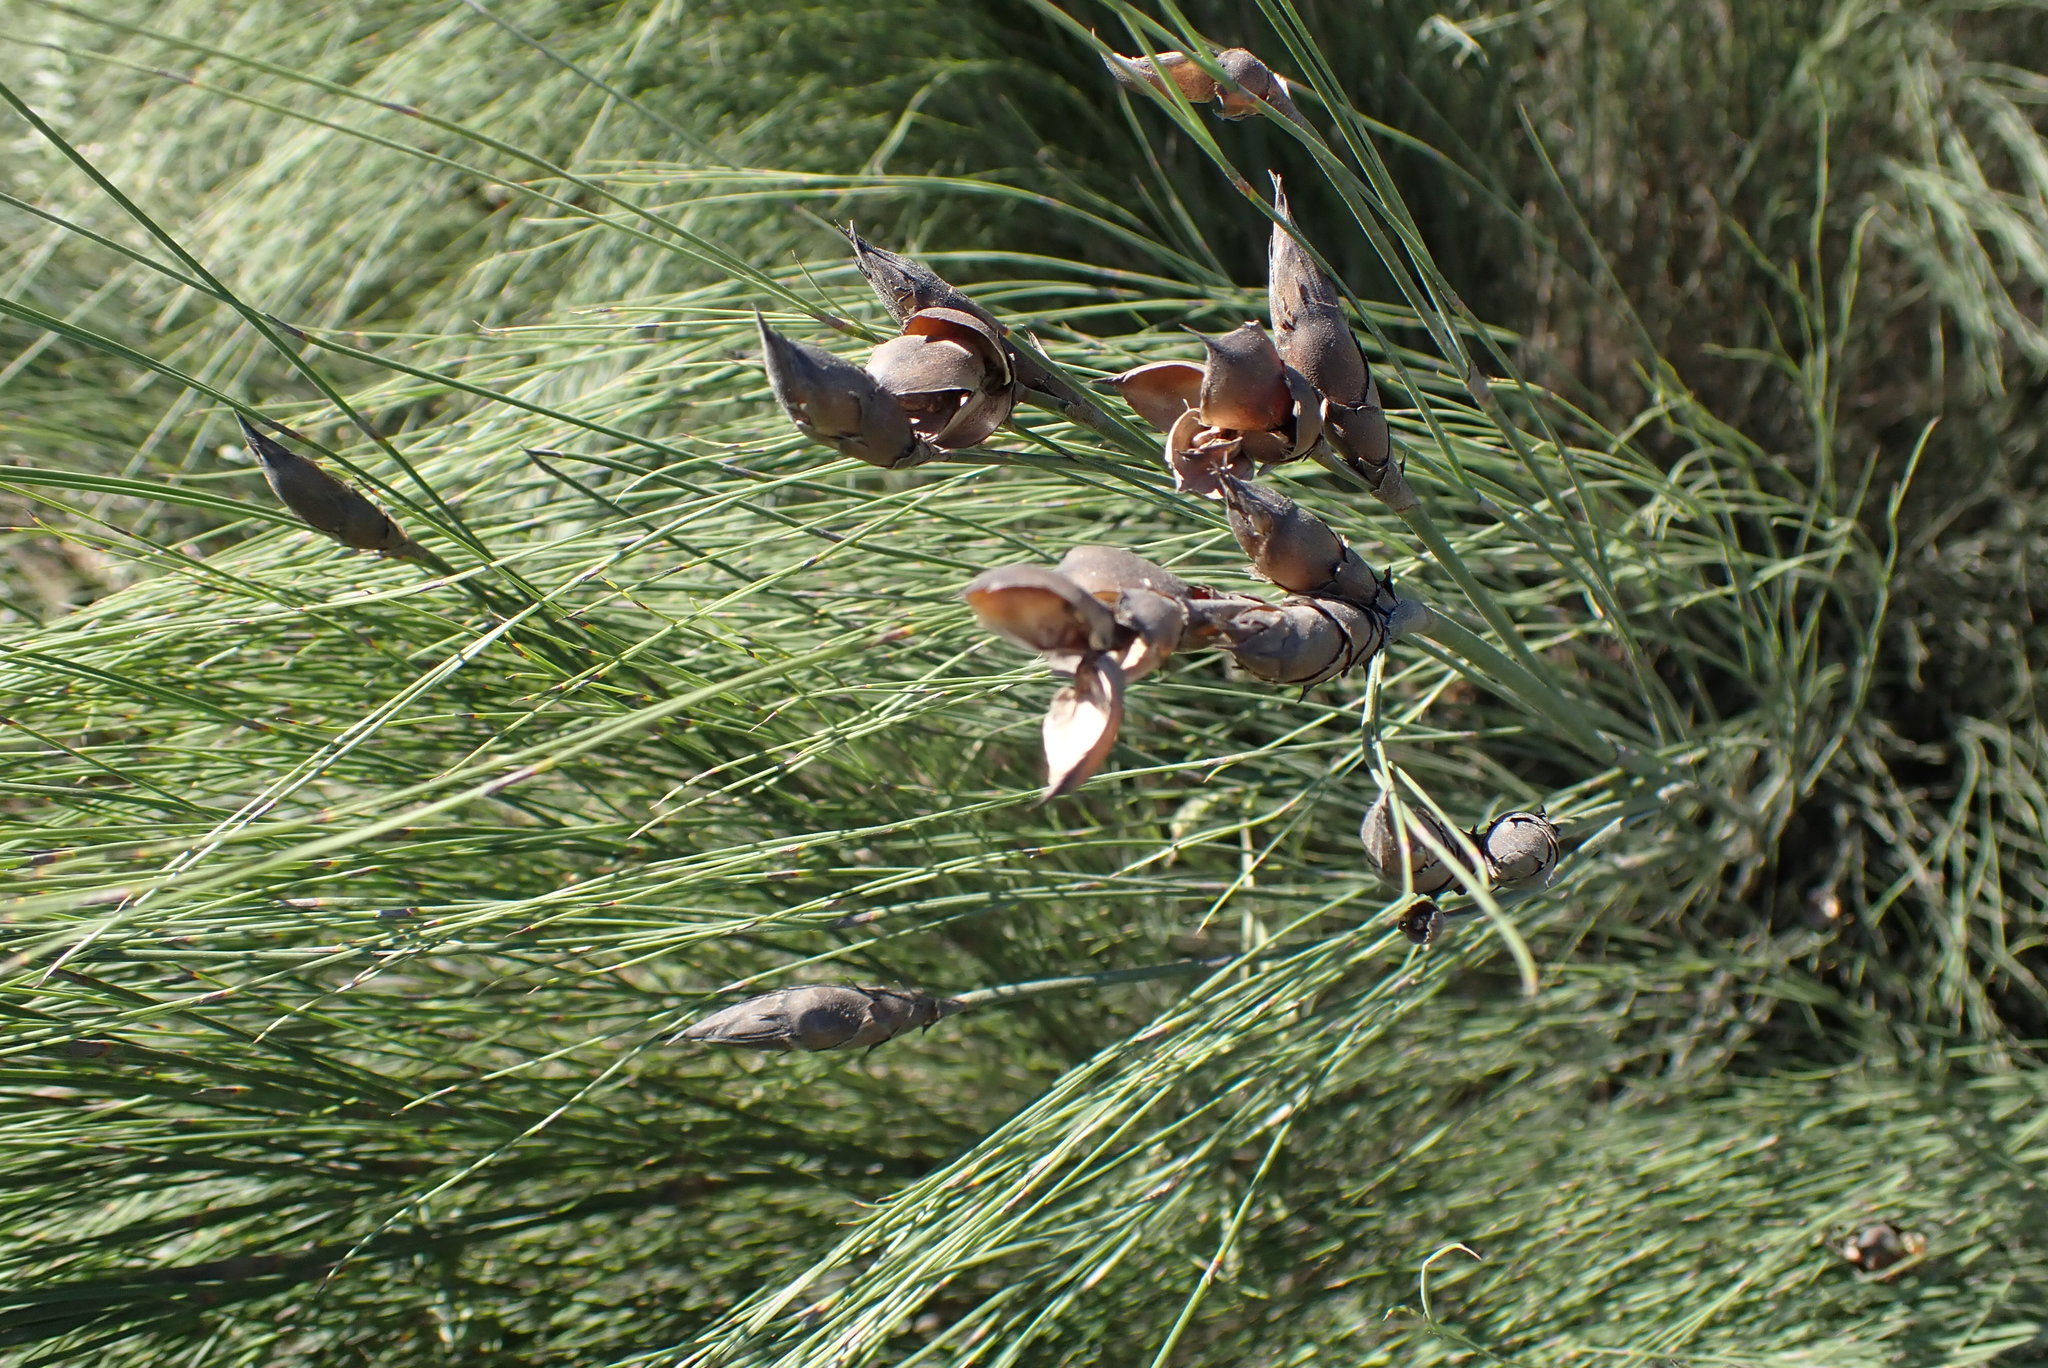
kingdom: Plantae
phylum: Tracheophyta
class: Liliopsida
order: Poales
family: Restionaceae
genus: Cannomois
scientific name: Cannomois virgata
